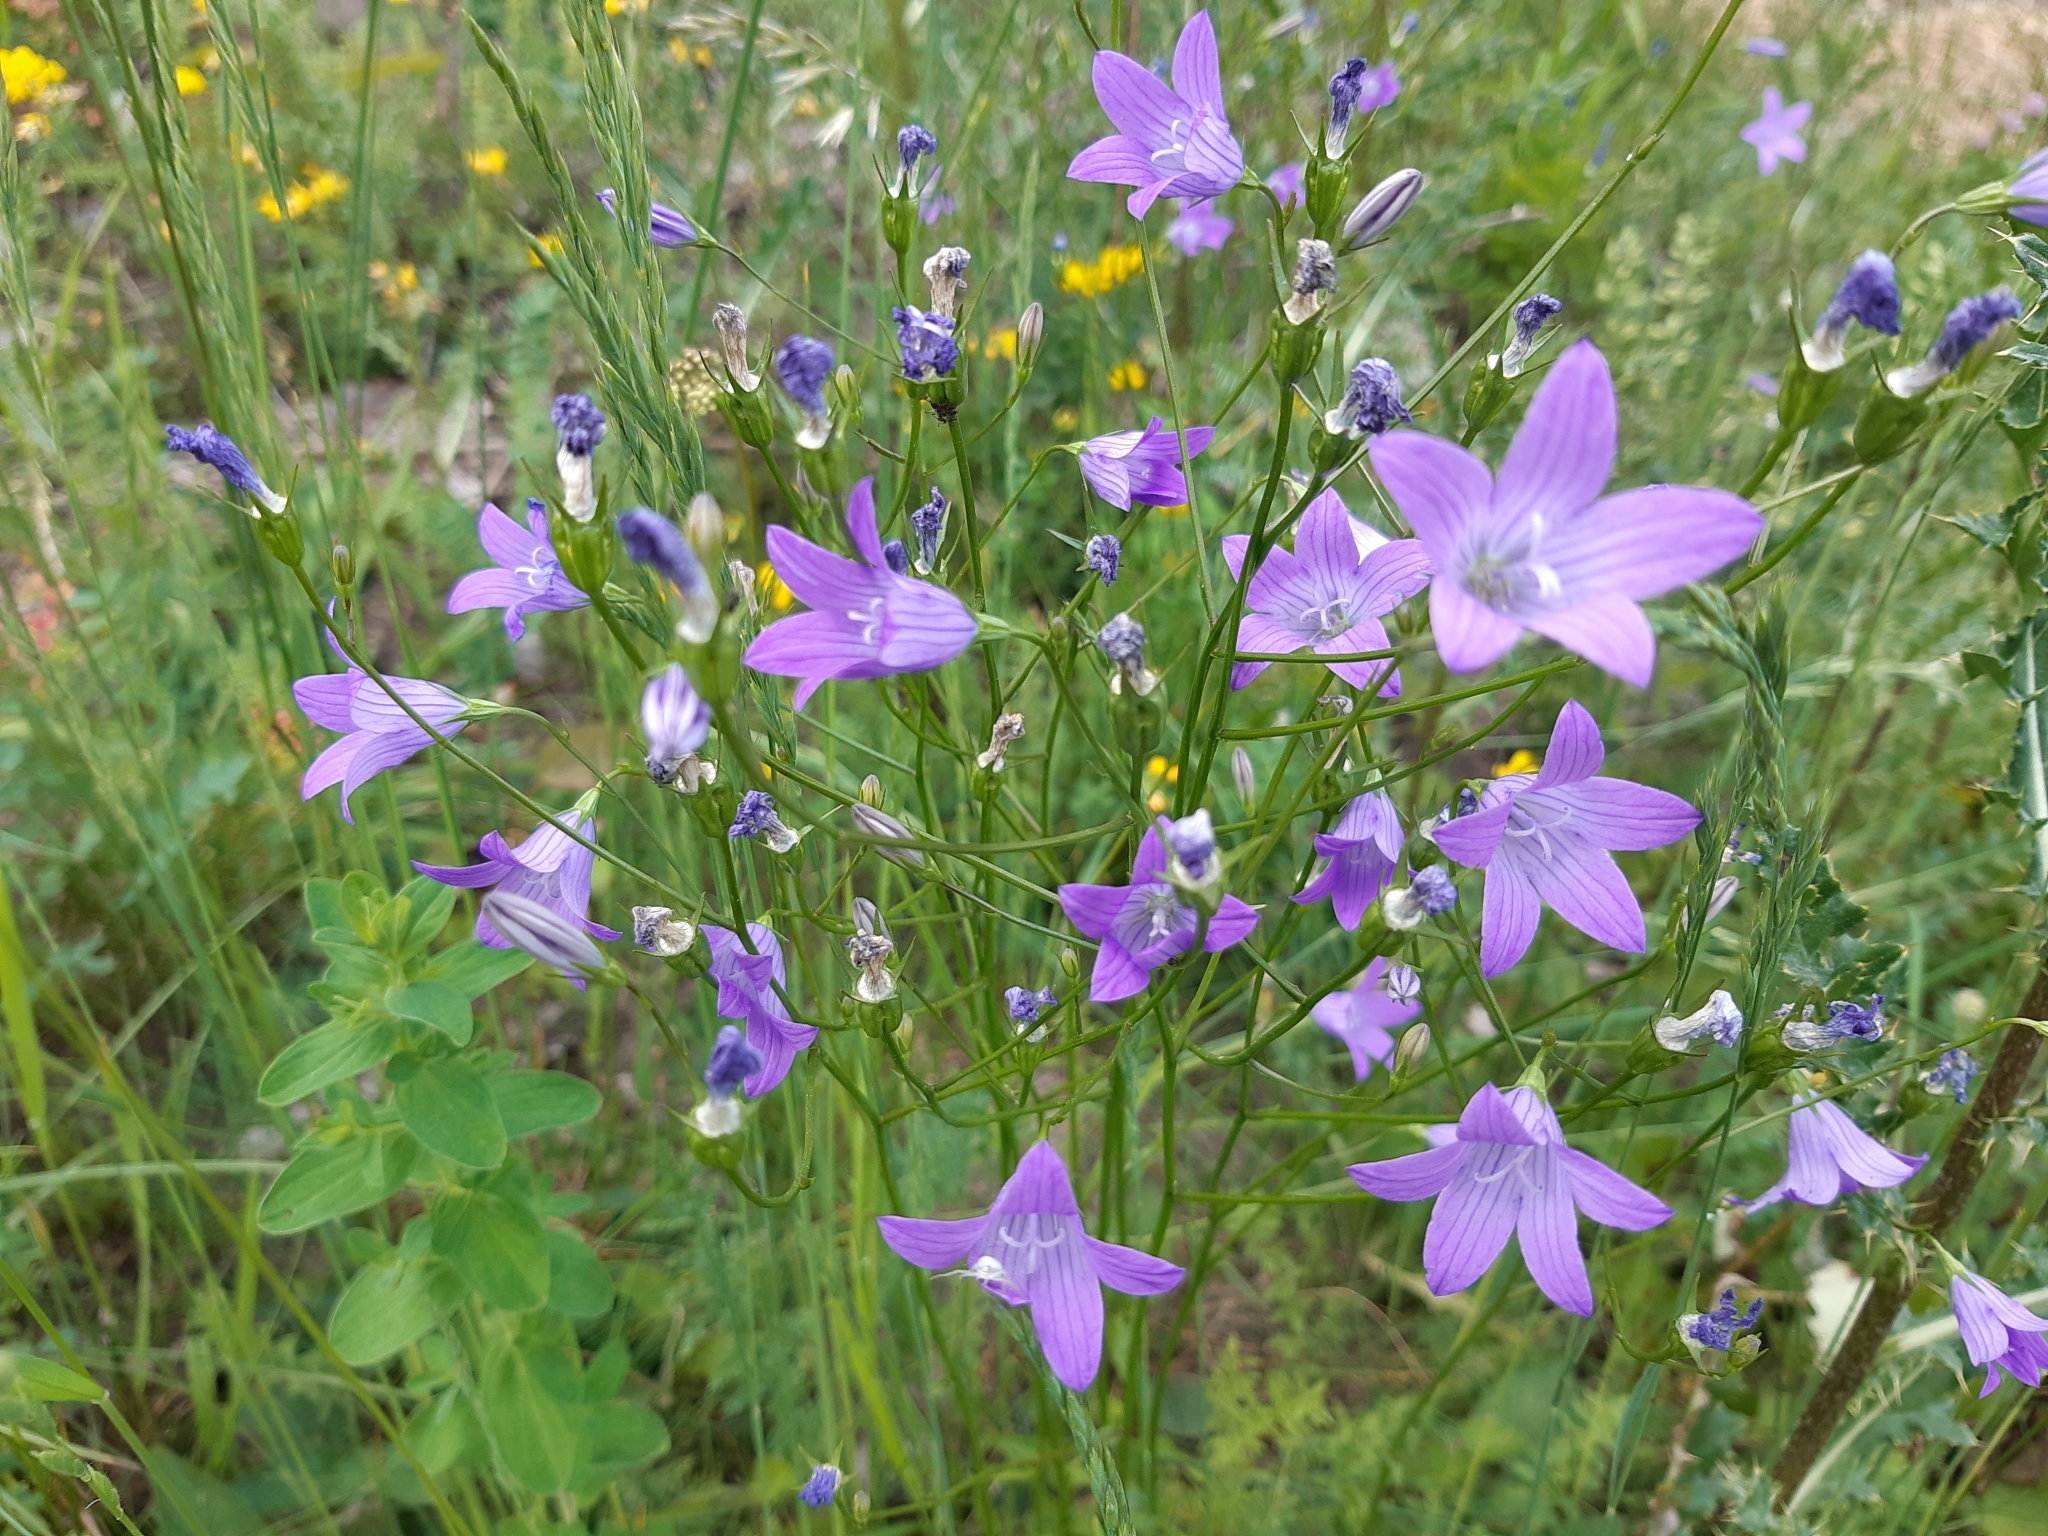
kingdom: Plantae
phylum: Tracheophyta
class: Magnoliopsida
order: Asterales
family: Campanulaceae
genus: Campanula
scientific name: Campanula patula
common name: Spreading bellflower
